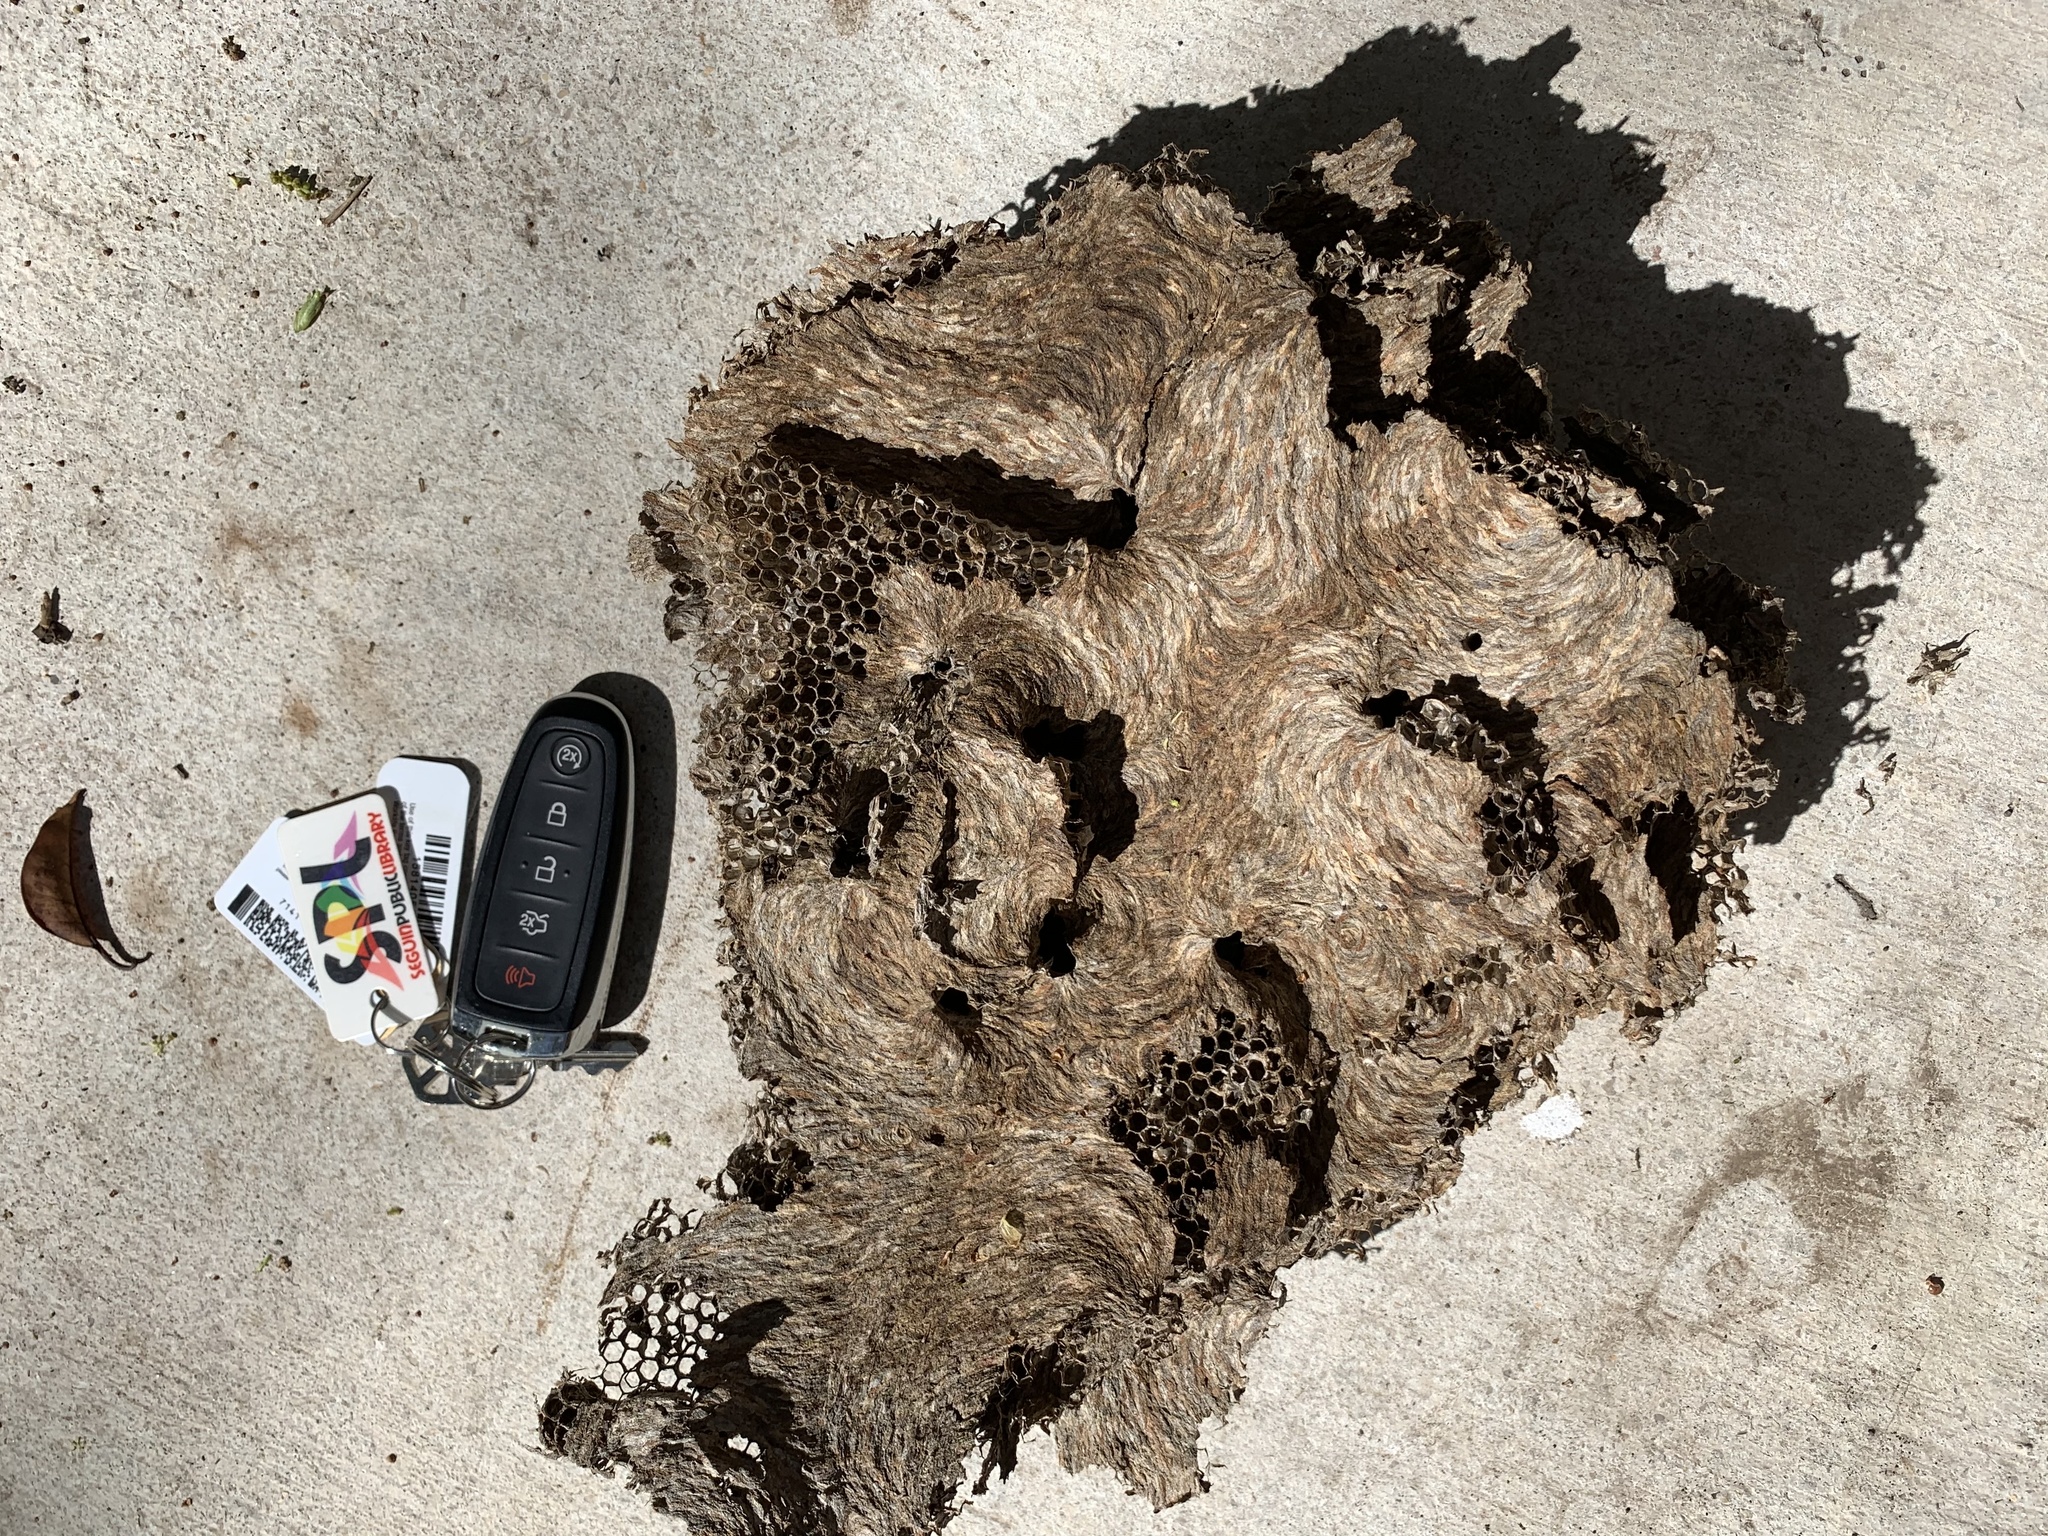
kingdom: Animalia
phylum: Arthropoda
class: Insecta
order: Hymenoptera
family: Vespidae
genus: Brachygastra
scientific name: Brachygastra mellifica
